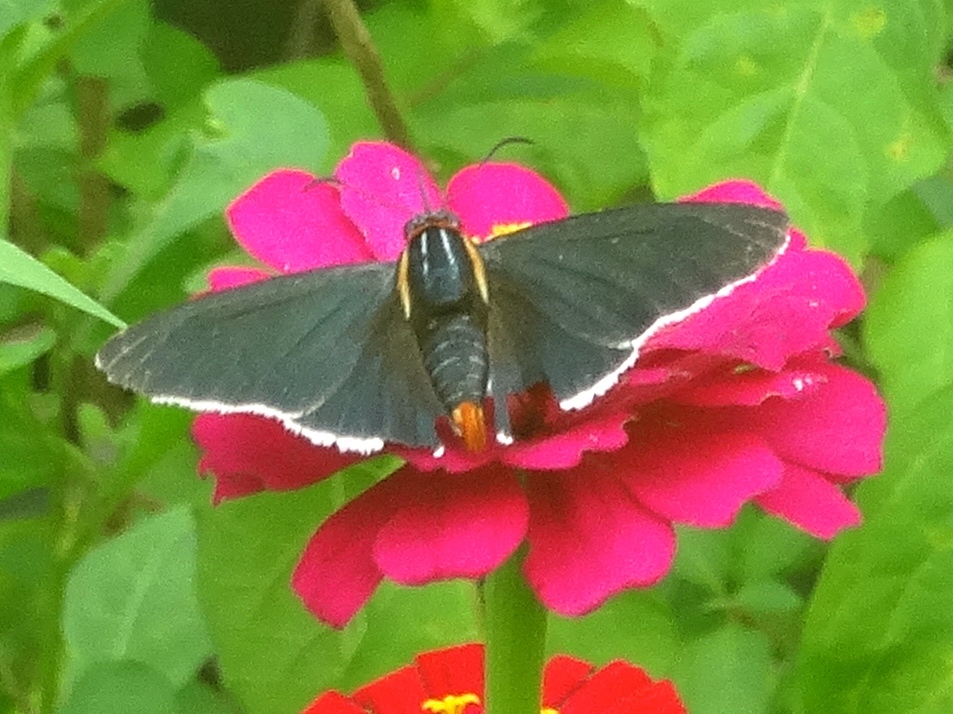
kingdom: Animalia
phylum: Arthropoda
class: Insecta
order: Lepidoptera
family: Hesperiidae
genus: Elbella
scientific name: Elbella scylla
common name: Scylla firetip
